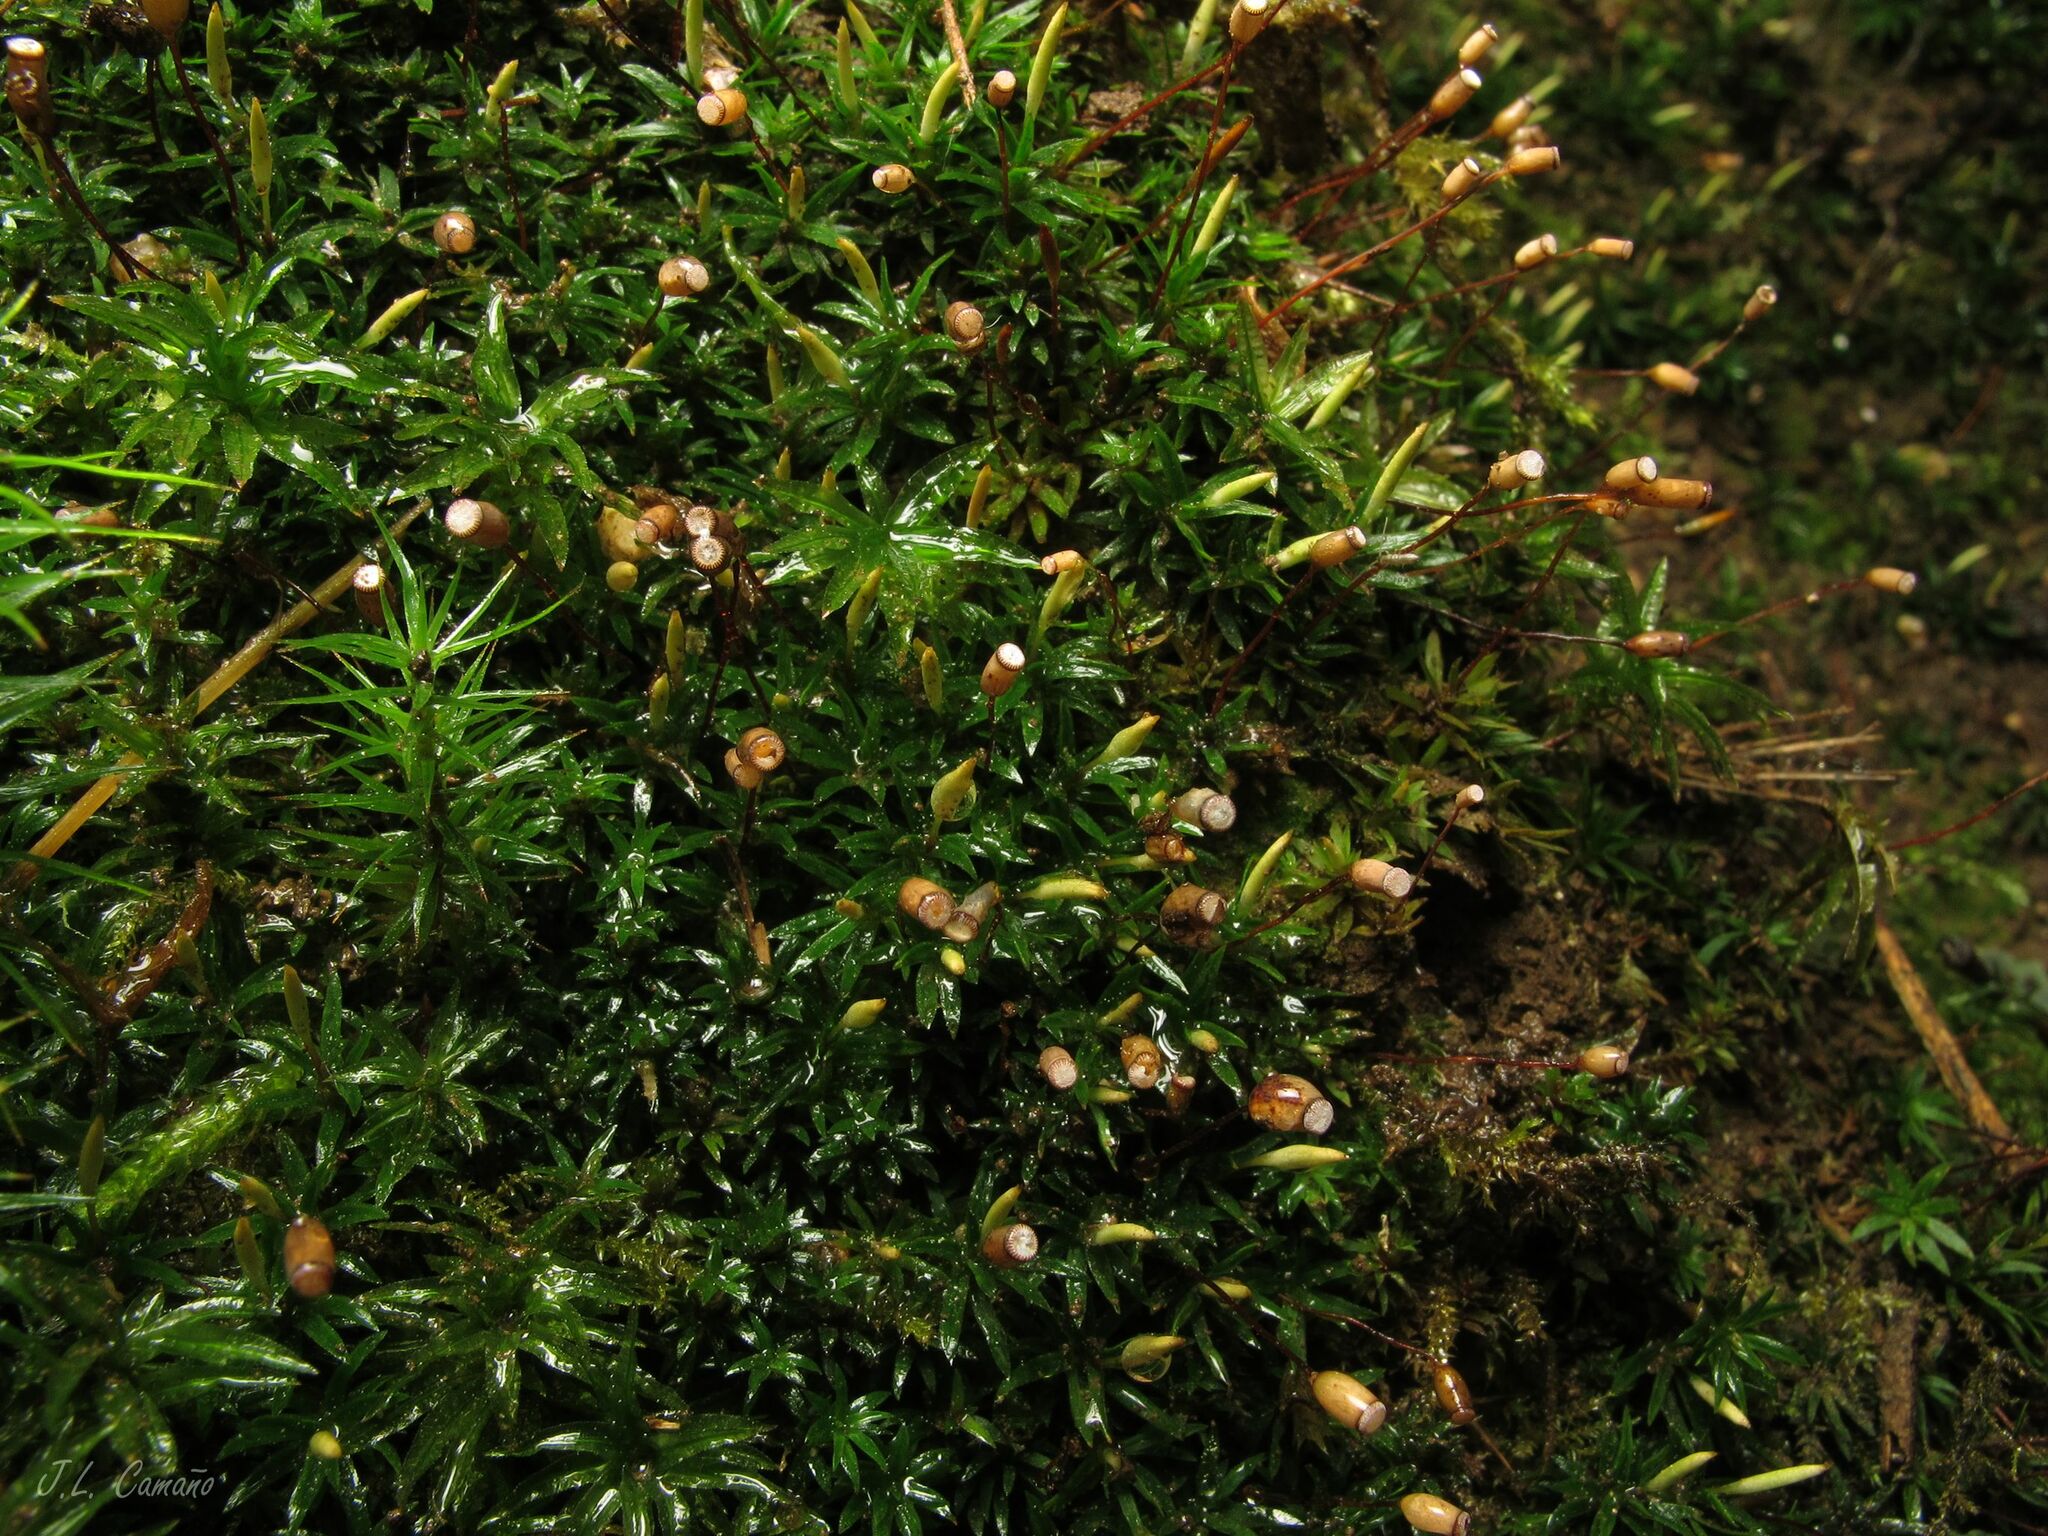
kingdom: Plantae
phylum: Bryophyta
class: Polytrichopsida
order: Polytrichales
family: Polytrichaceae
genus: Pogonatum
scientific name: Pogonatum aloides
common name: Aloe haircap
